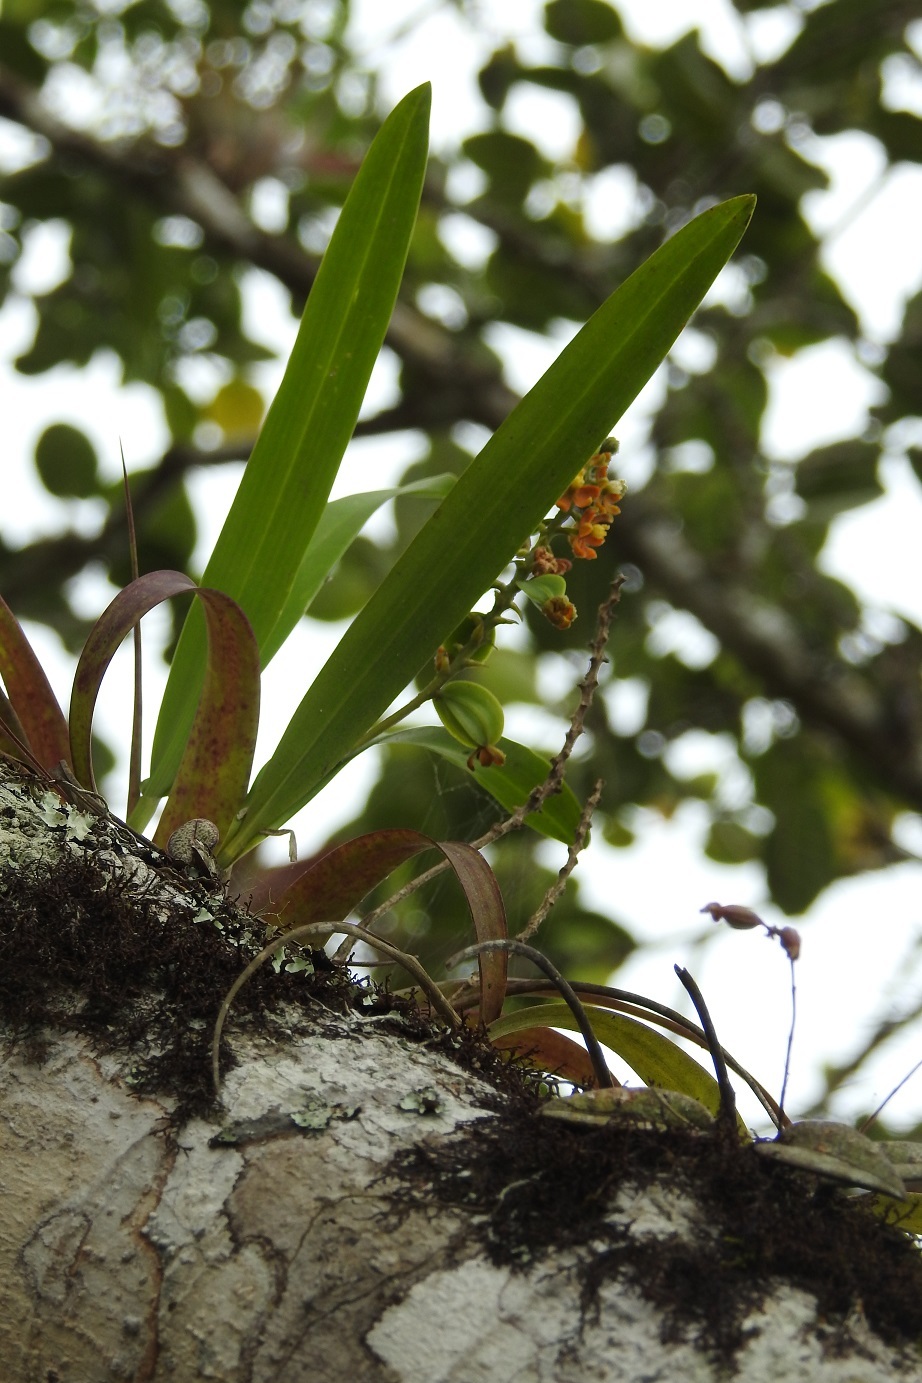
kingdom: Plantae
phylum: Tracheophyta
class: Liliopsida
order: Asparagales
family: Orchidaceae
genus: Prosthechea
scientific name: Prosthechea ochracea
